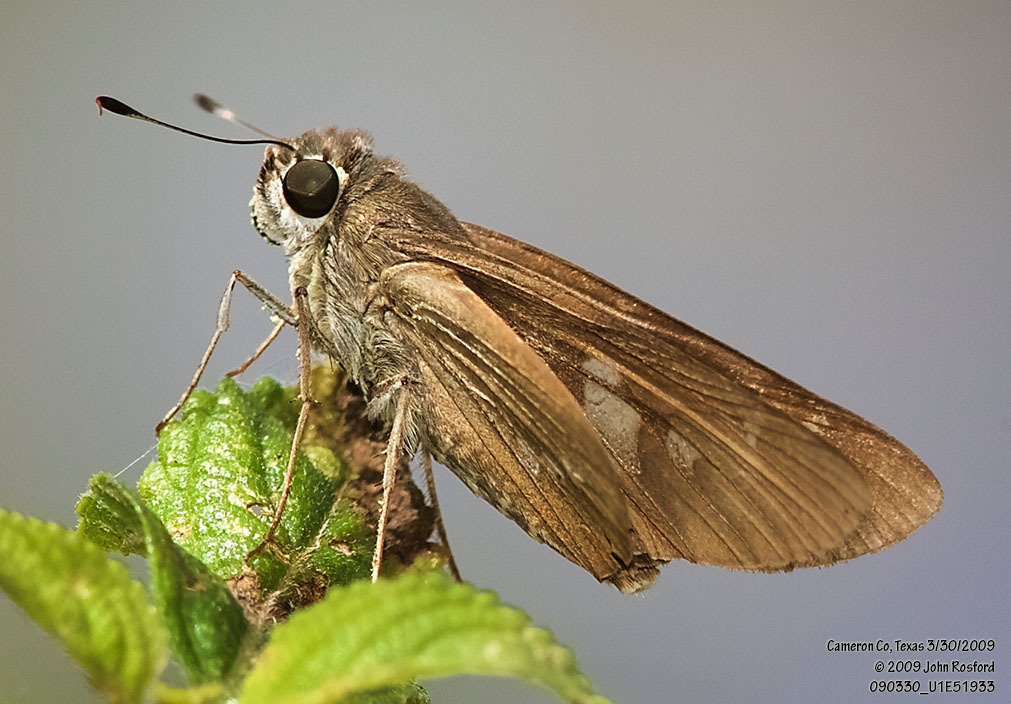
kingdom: Animalia
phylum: Arthropoda
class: Insecta
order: Lepidoptera
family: Hesperiidae
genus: Calpodes
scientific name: Calpodes ethlius
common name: Brazilian skipper
